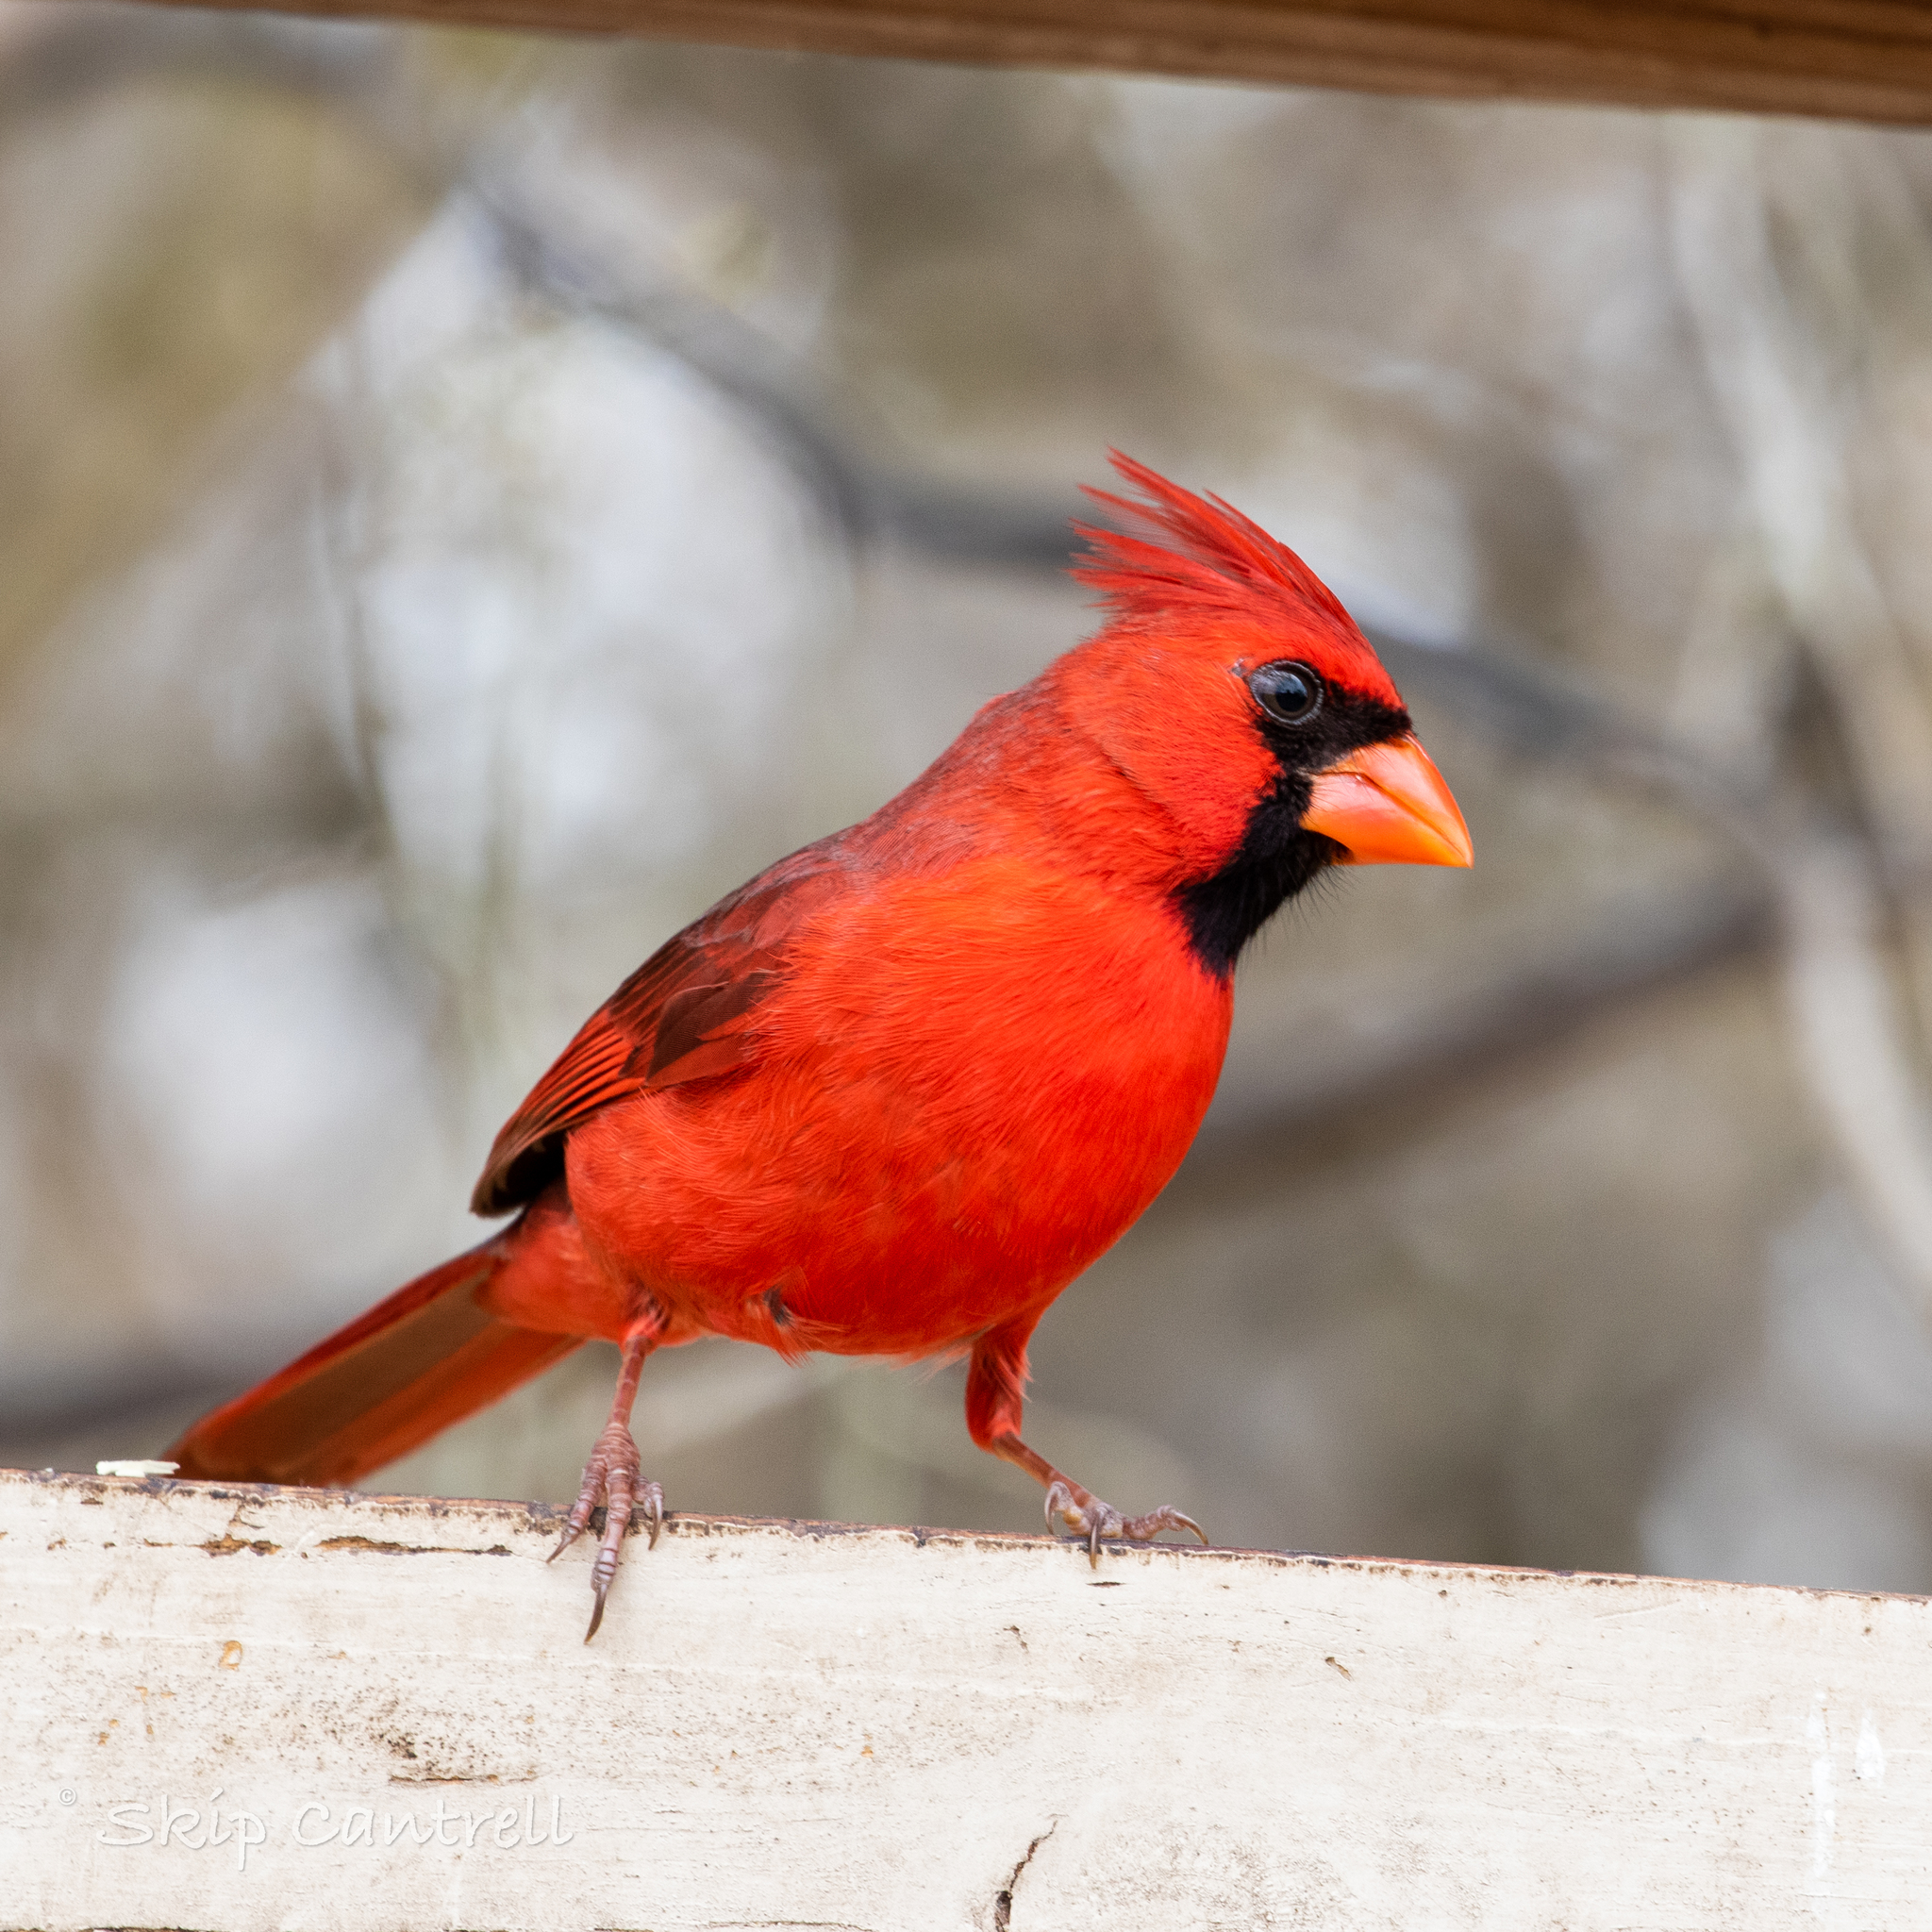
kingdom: Animalia
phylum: Chordata
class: Aves
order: Passeriformes
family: Cardinalidae
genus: Cardinalis
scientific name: Cardinalis cardinalis
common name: Northern cardinal
